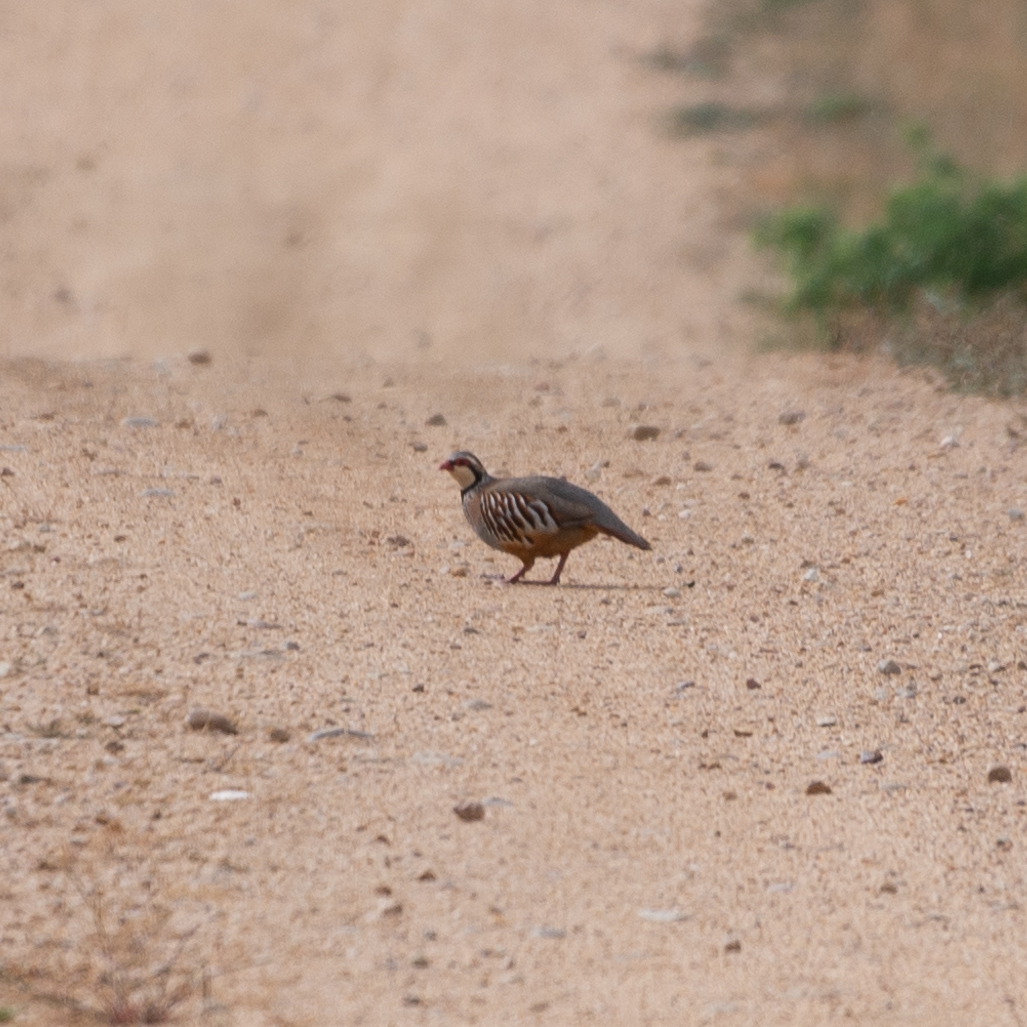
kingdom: Animalia
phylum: Chordata
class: Aves
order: Galliformes
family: Phasianidae
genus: Alectoris
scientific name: Alectoris rufa
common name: Red-legged partridge
